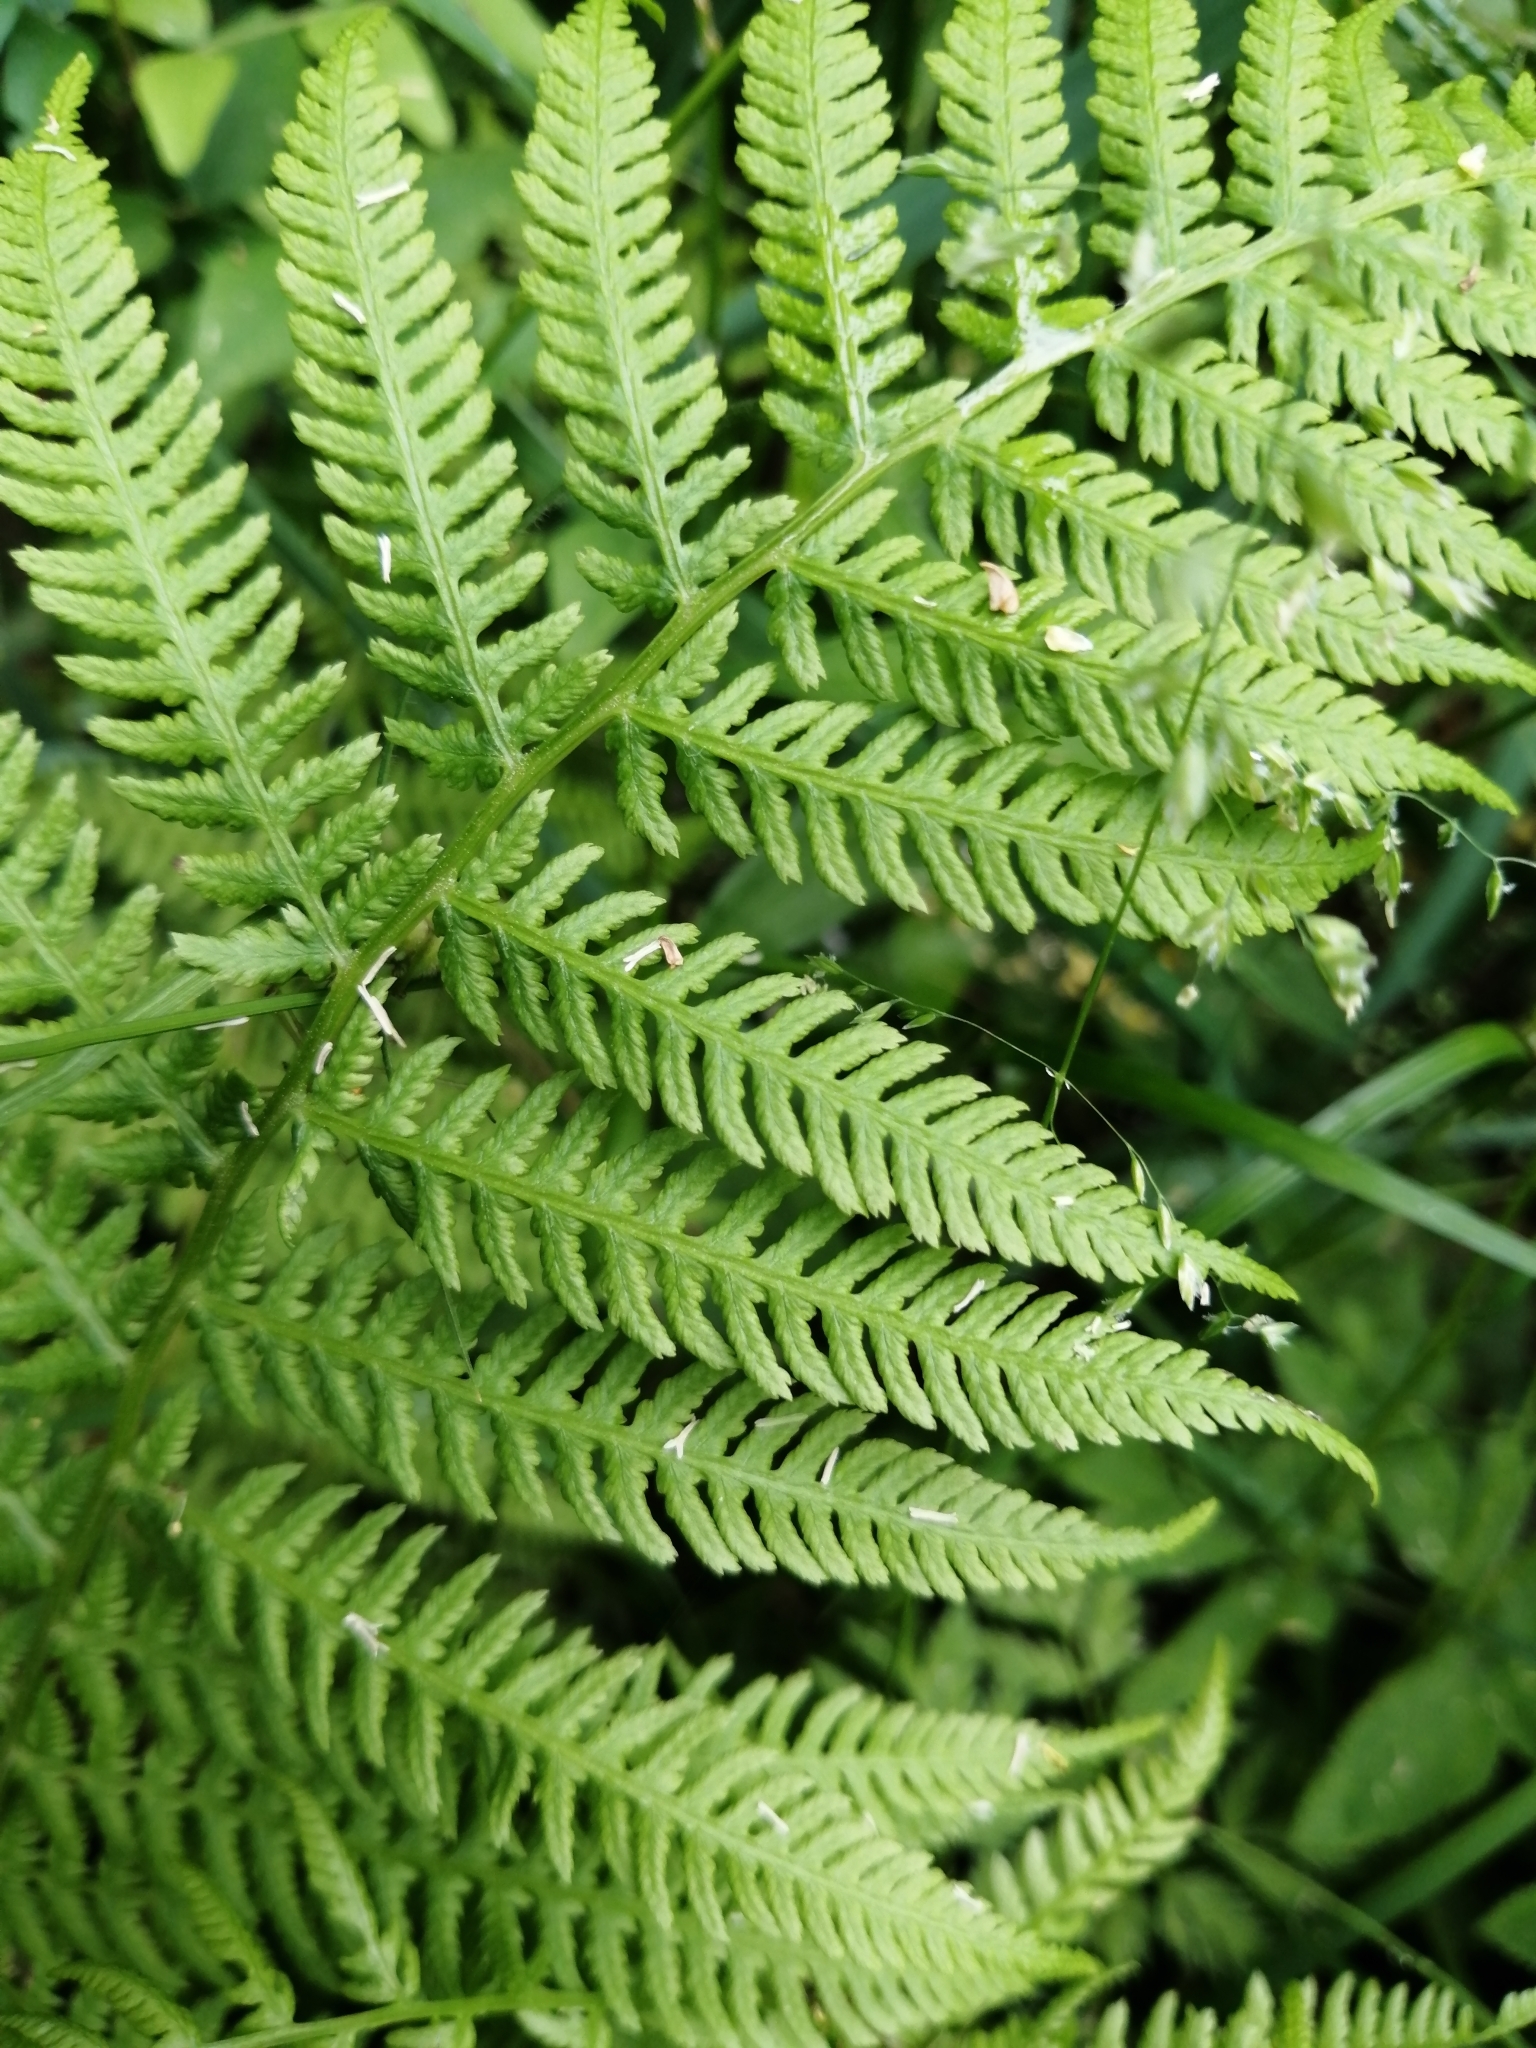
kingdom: Plantae
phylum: Tracheophyta
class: Polypodiopsida
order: Polypodiales
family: Athyriaceae
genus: Athyrium
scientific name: Athyrium filix-femina
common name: Lady fern
